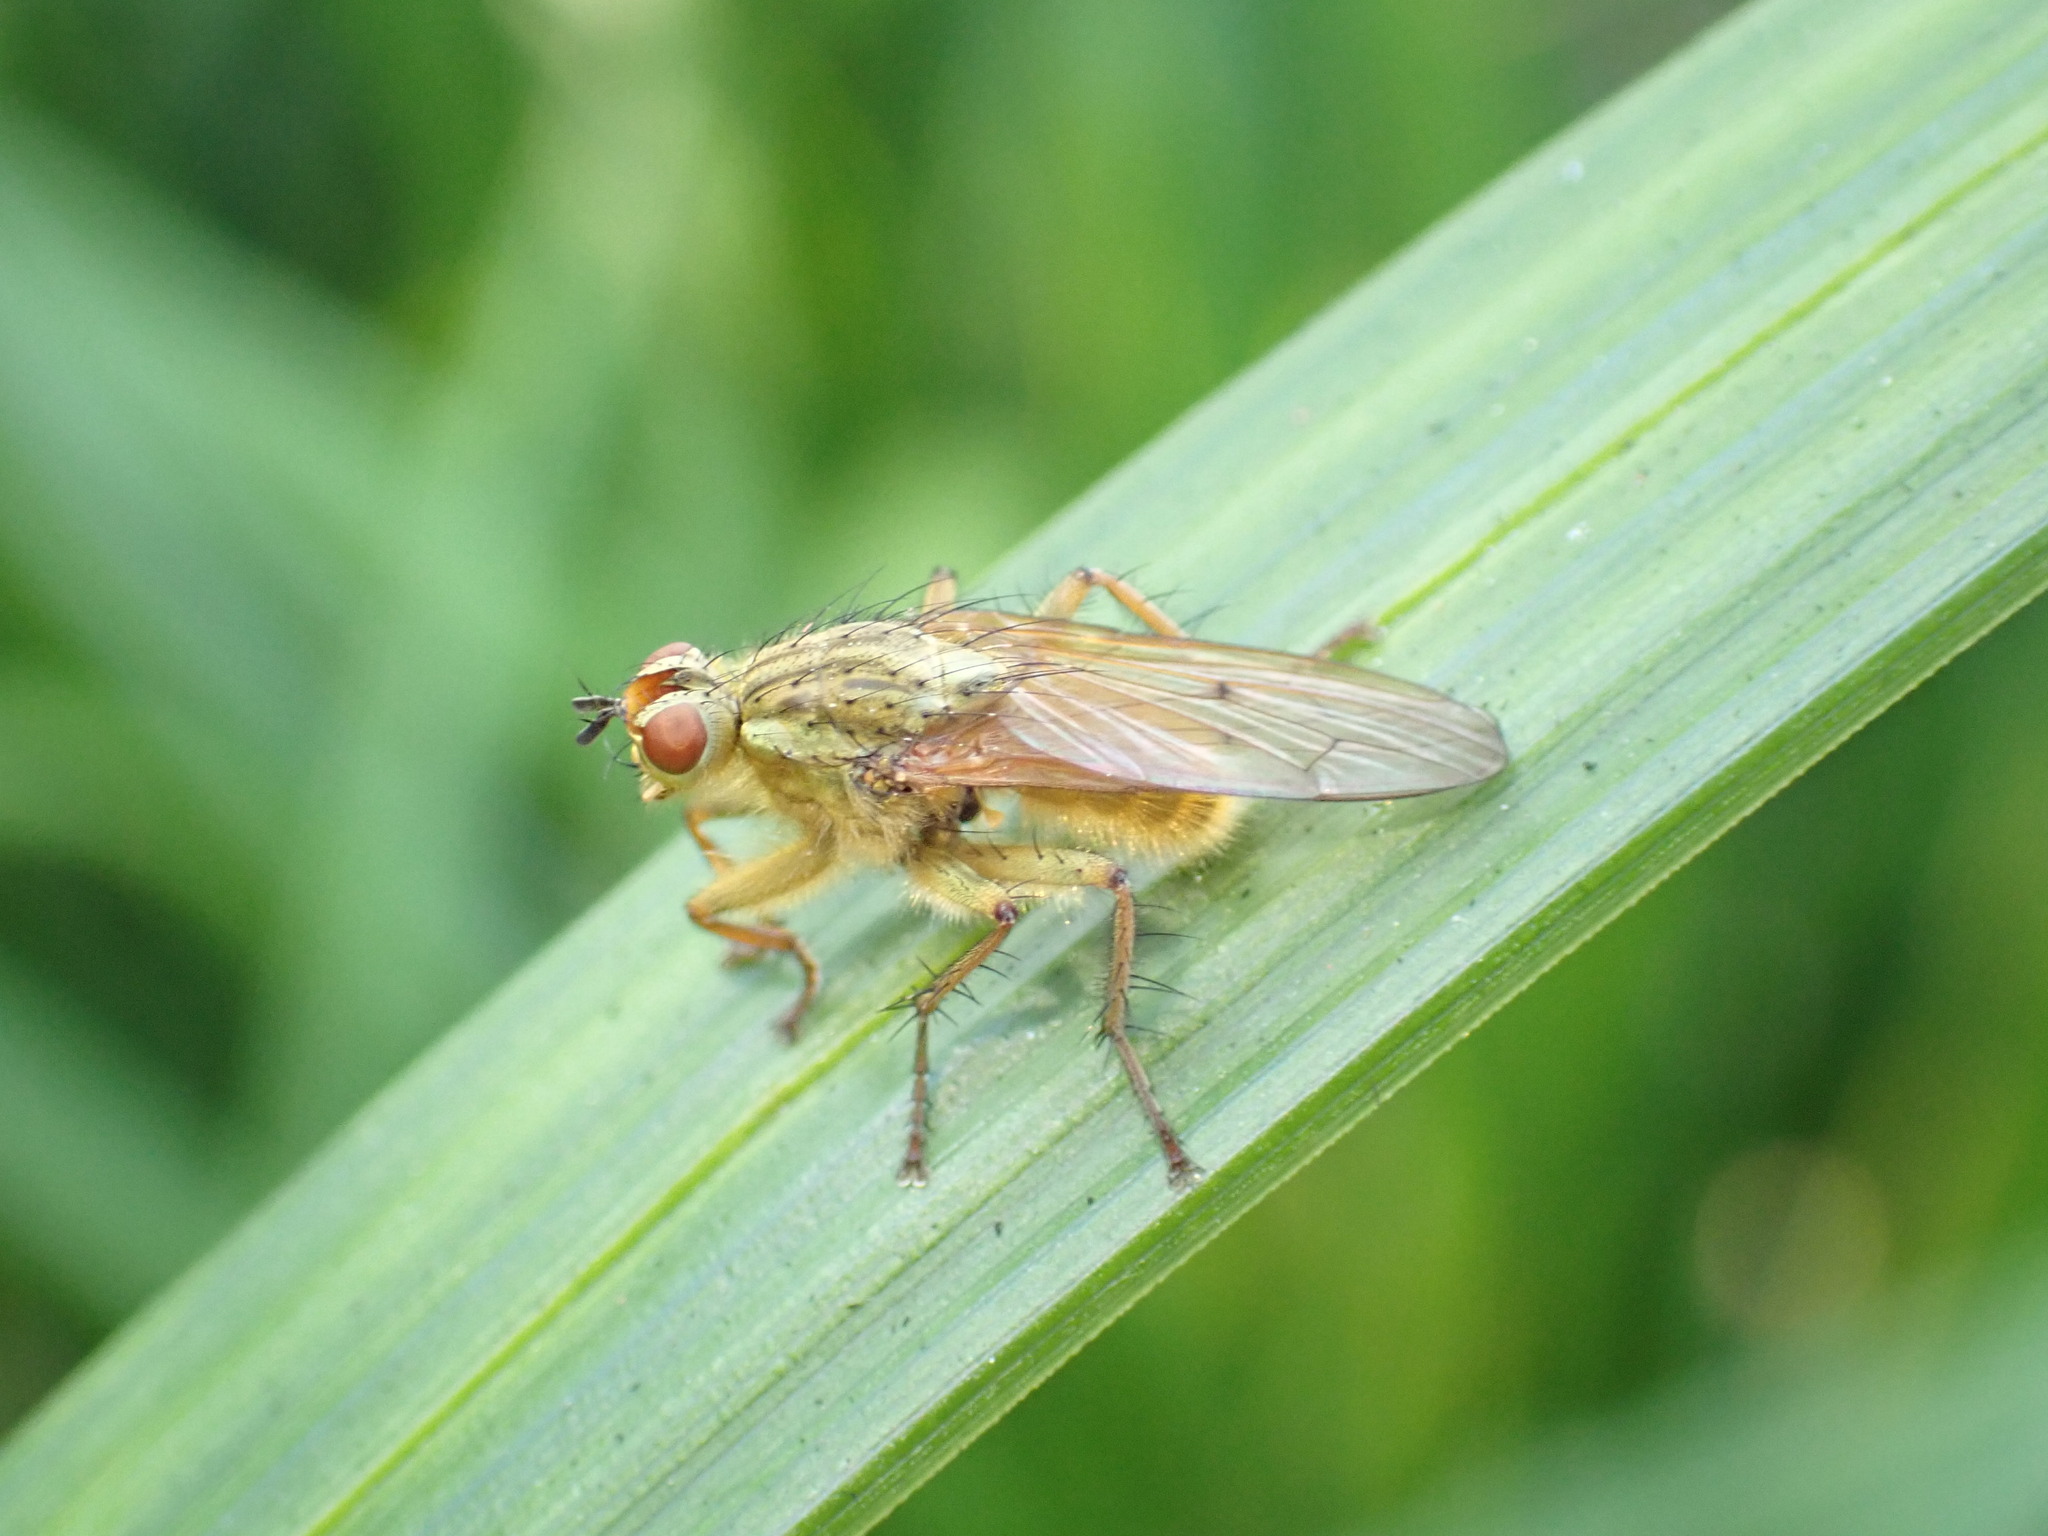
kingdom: Animalia
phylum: Arthropoda
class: Insecta
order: Diptera
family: Scathophagidae
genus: Scathophaga
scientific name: Scathophaga stercoraria
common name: Yellow dung fly
